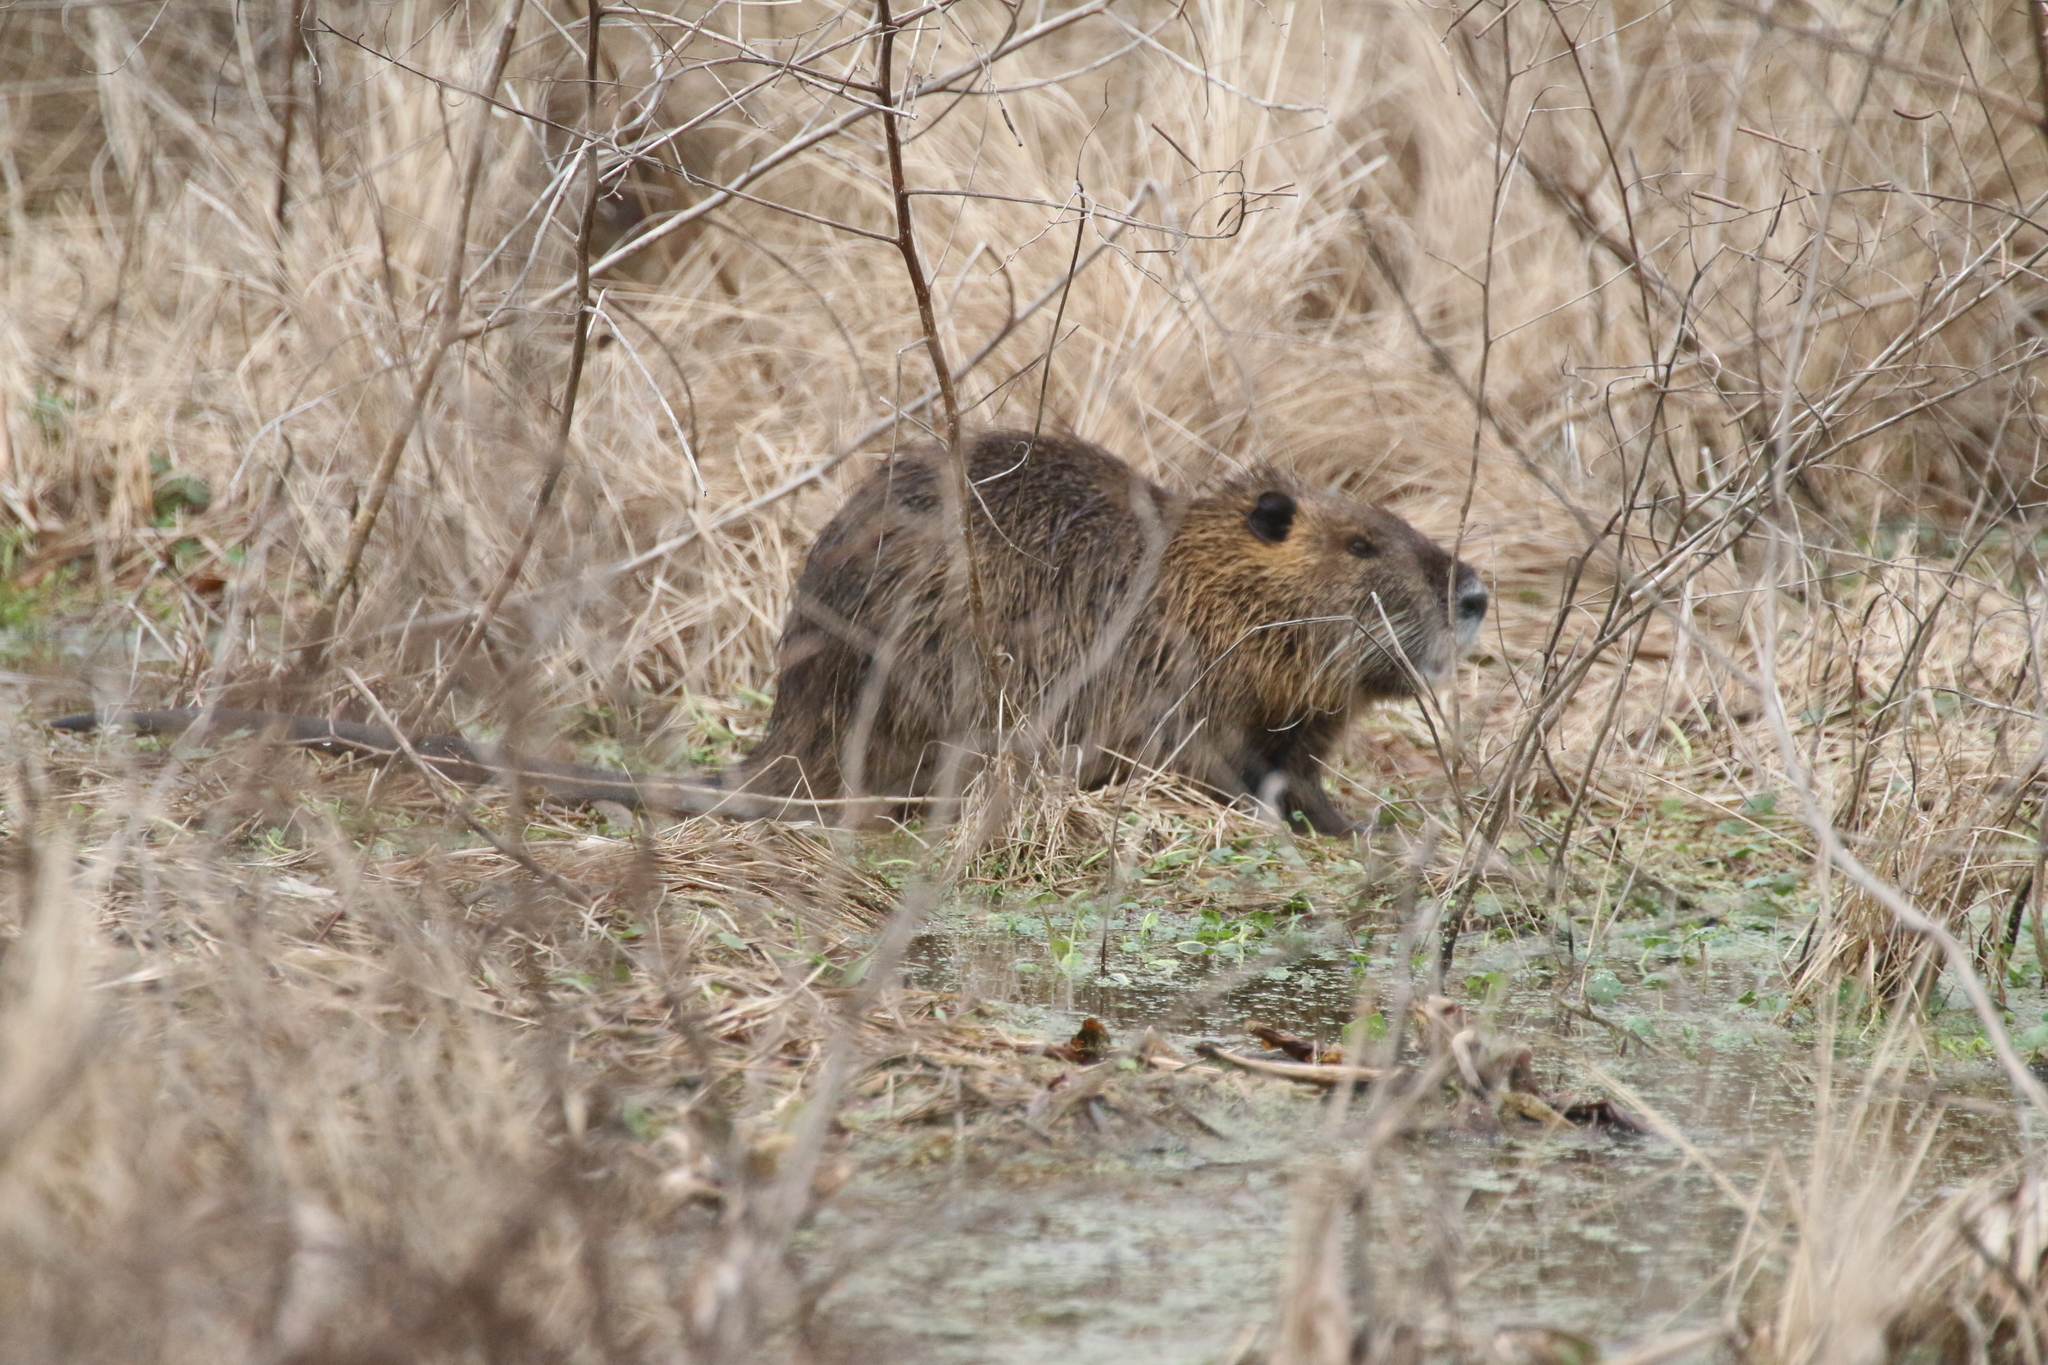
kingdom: Animalia
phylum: Chordata
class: Mammalia
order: Rodentia
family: Myocastoridae
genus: Myocastor
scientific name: Myocastor coypus
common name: Coypu
